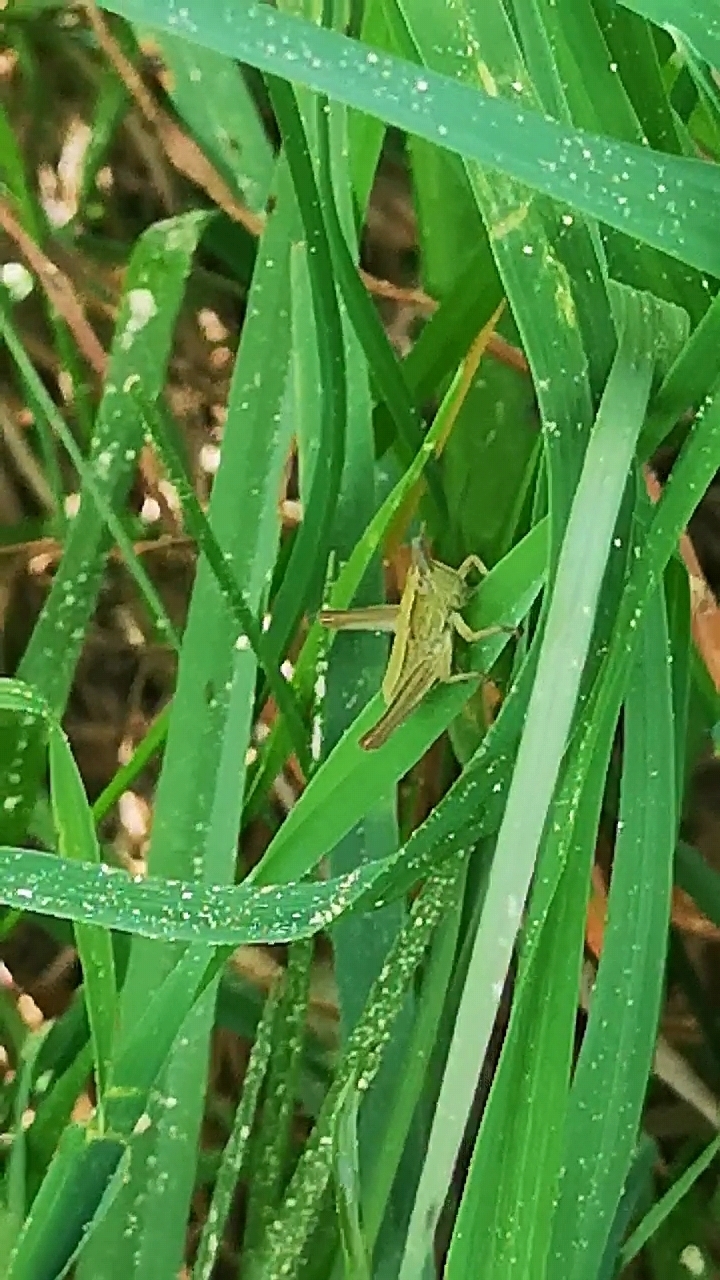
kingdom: Animalia
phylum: Arthropoda
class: Insecta
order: Orthoptera
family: Acrididae
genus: Euthystira
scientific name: Euthystira brachyptera
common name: Small gold grasshopper
